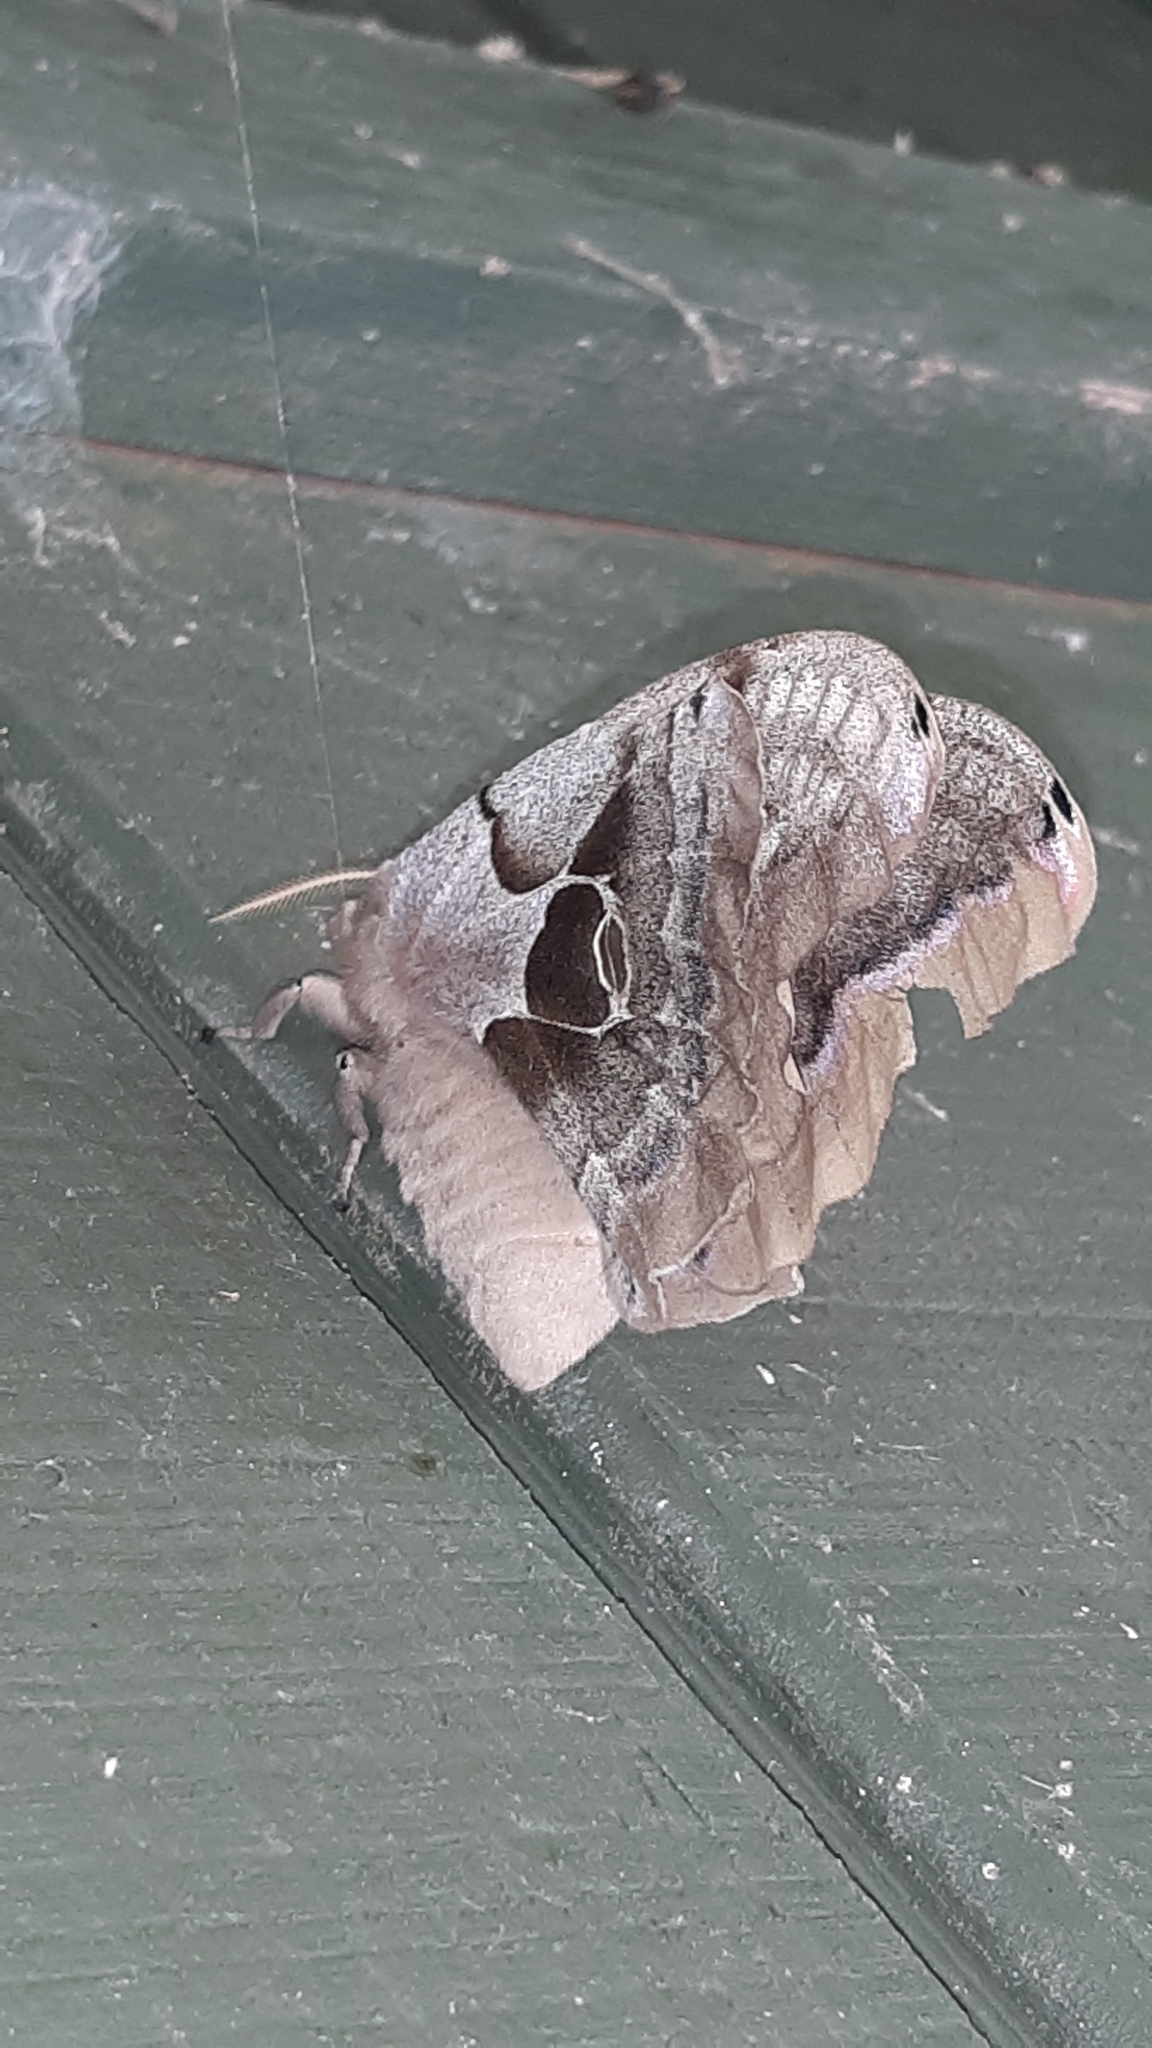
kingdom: Animalia
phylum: Arthropoda
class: Insecta
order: Lepidoptera
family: Saturniidae
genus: Antheraea
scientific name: Antheraea polyphemus
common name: Polyphemus moth
